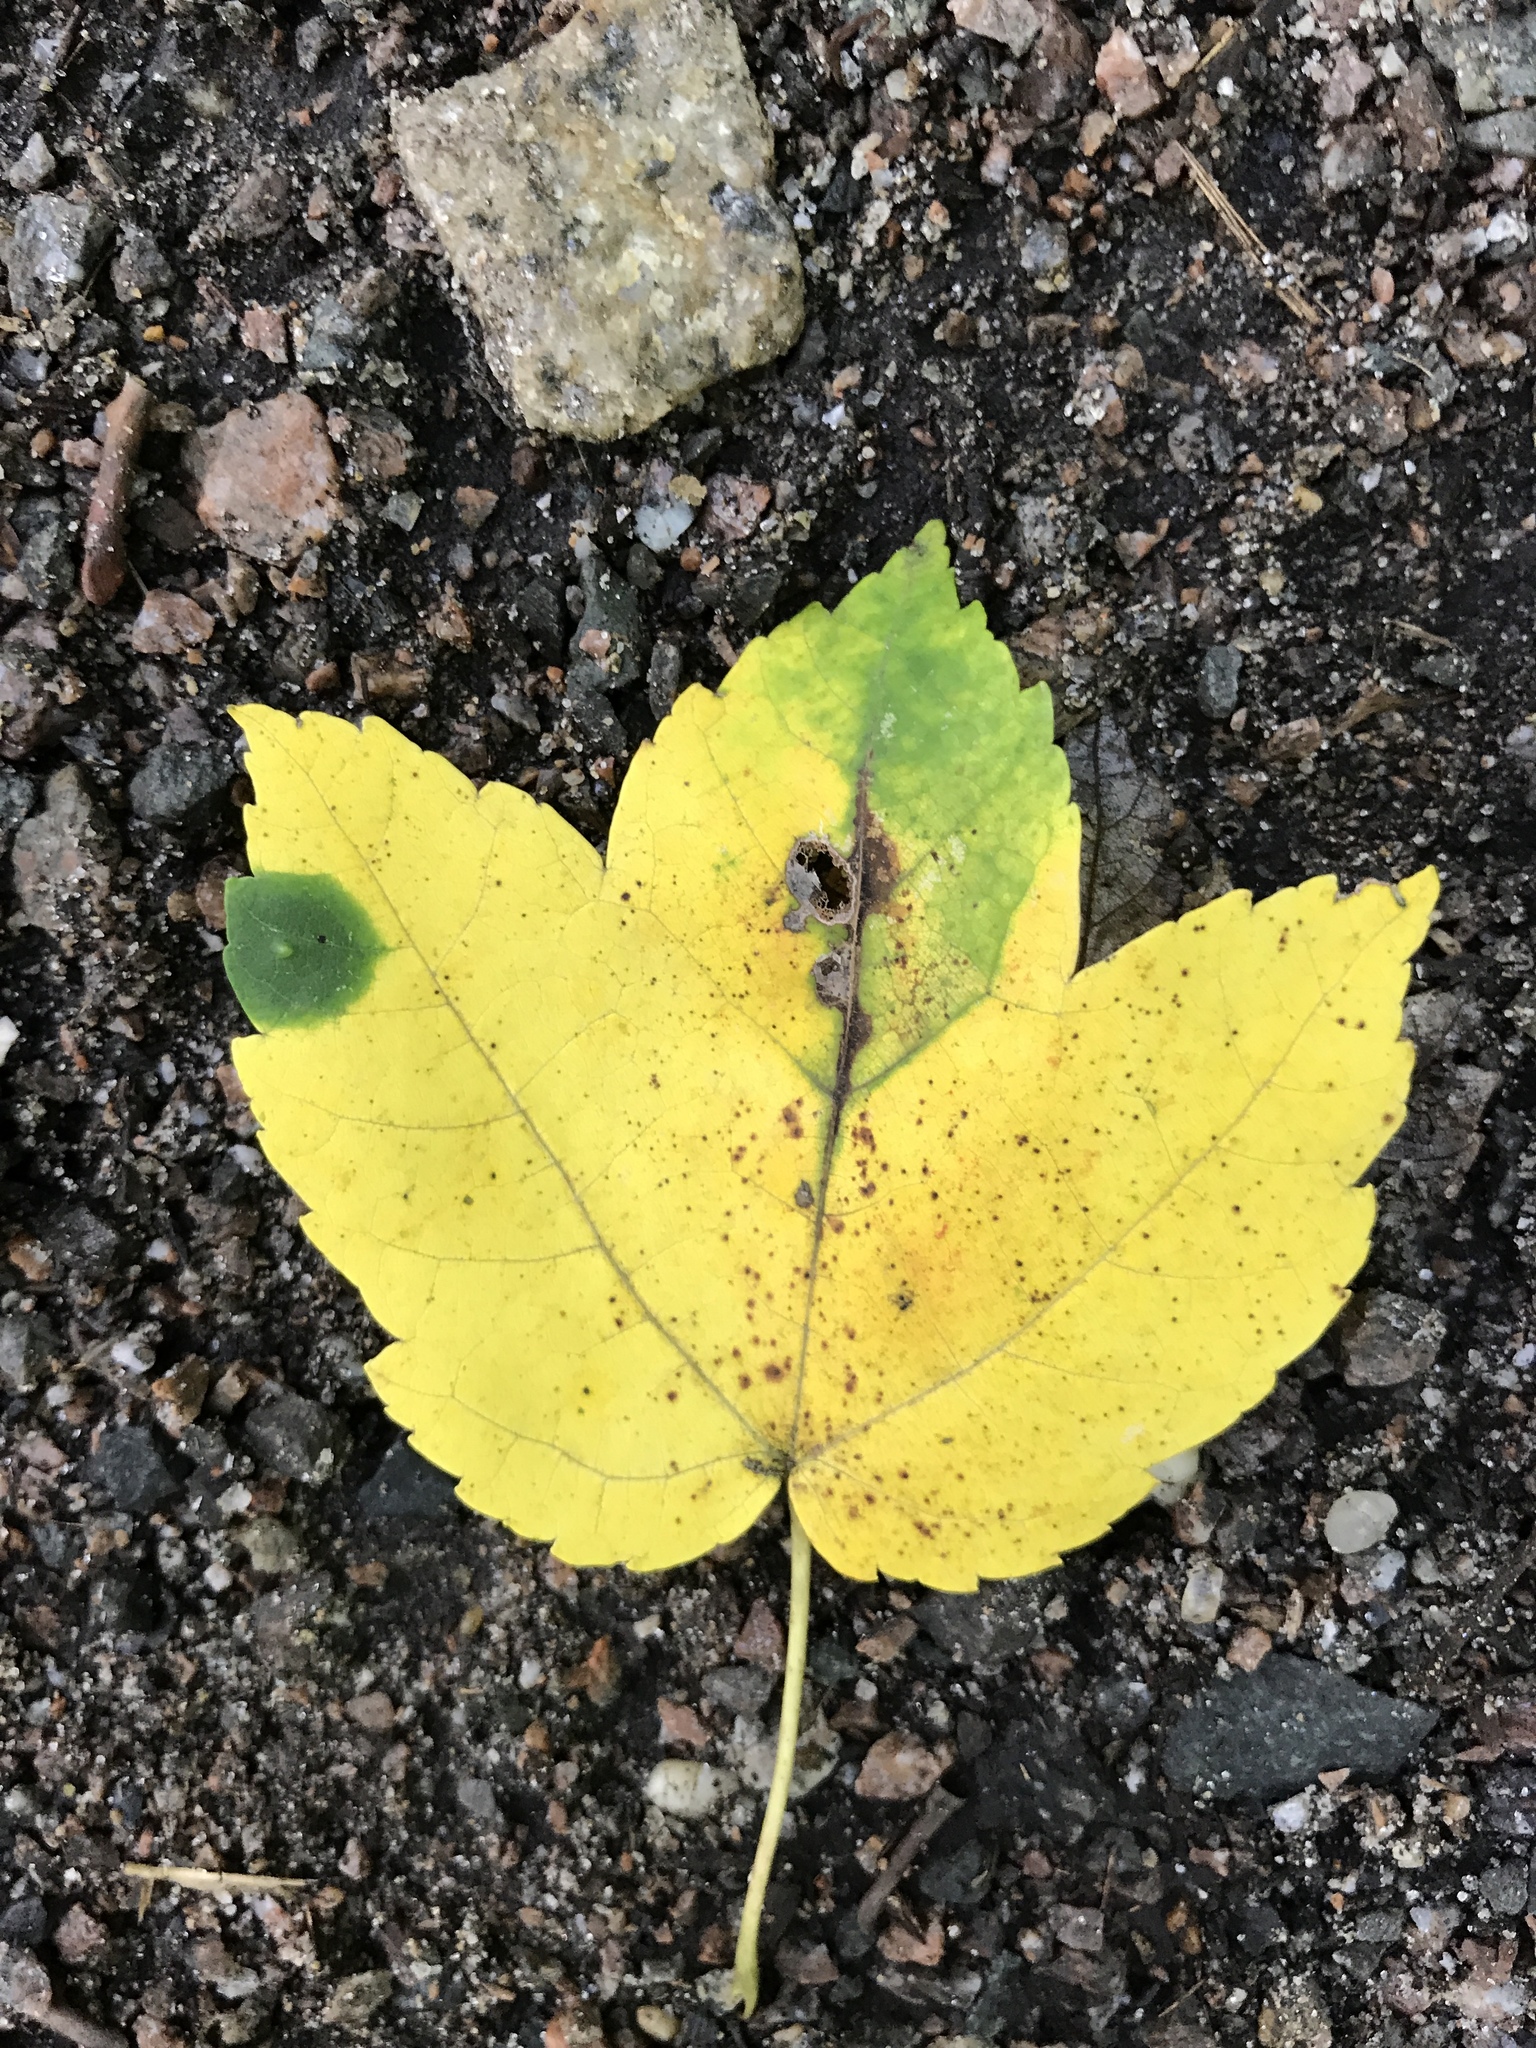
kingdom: Plantae
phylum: Tracheophyta
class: Magnoliopsida
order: Sapindales
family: Sapindaceae
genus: Acer
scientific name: Acer rubrum
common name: Red maple
